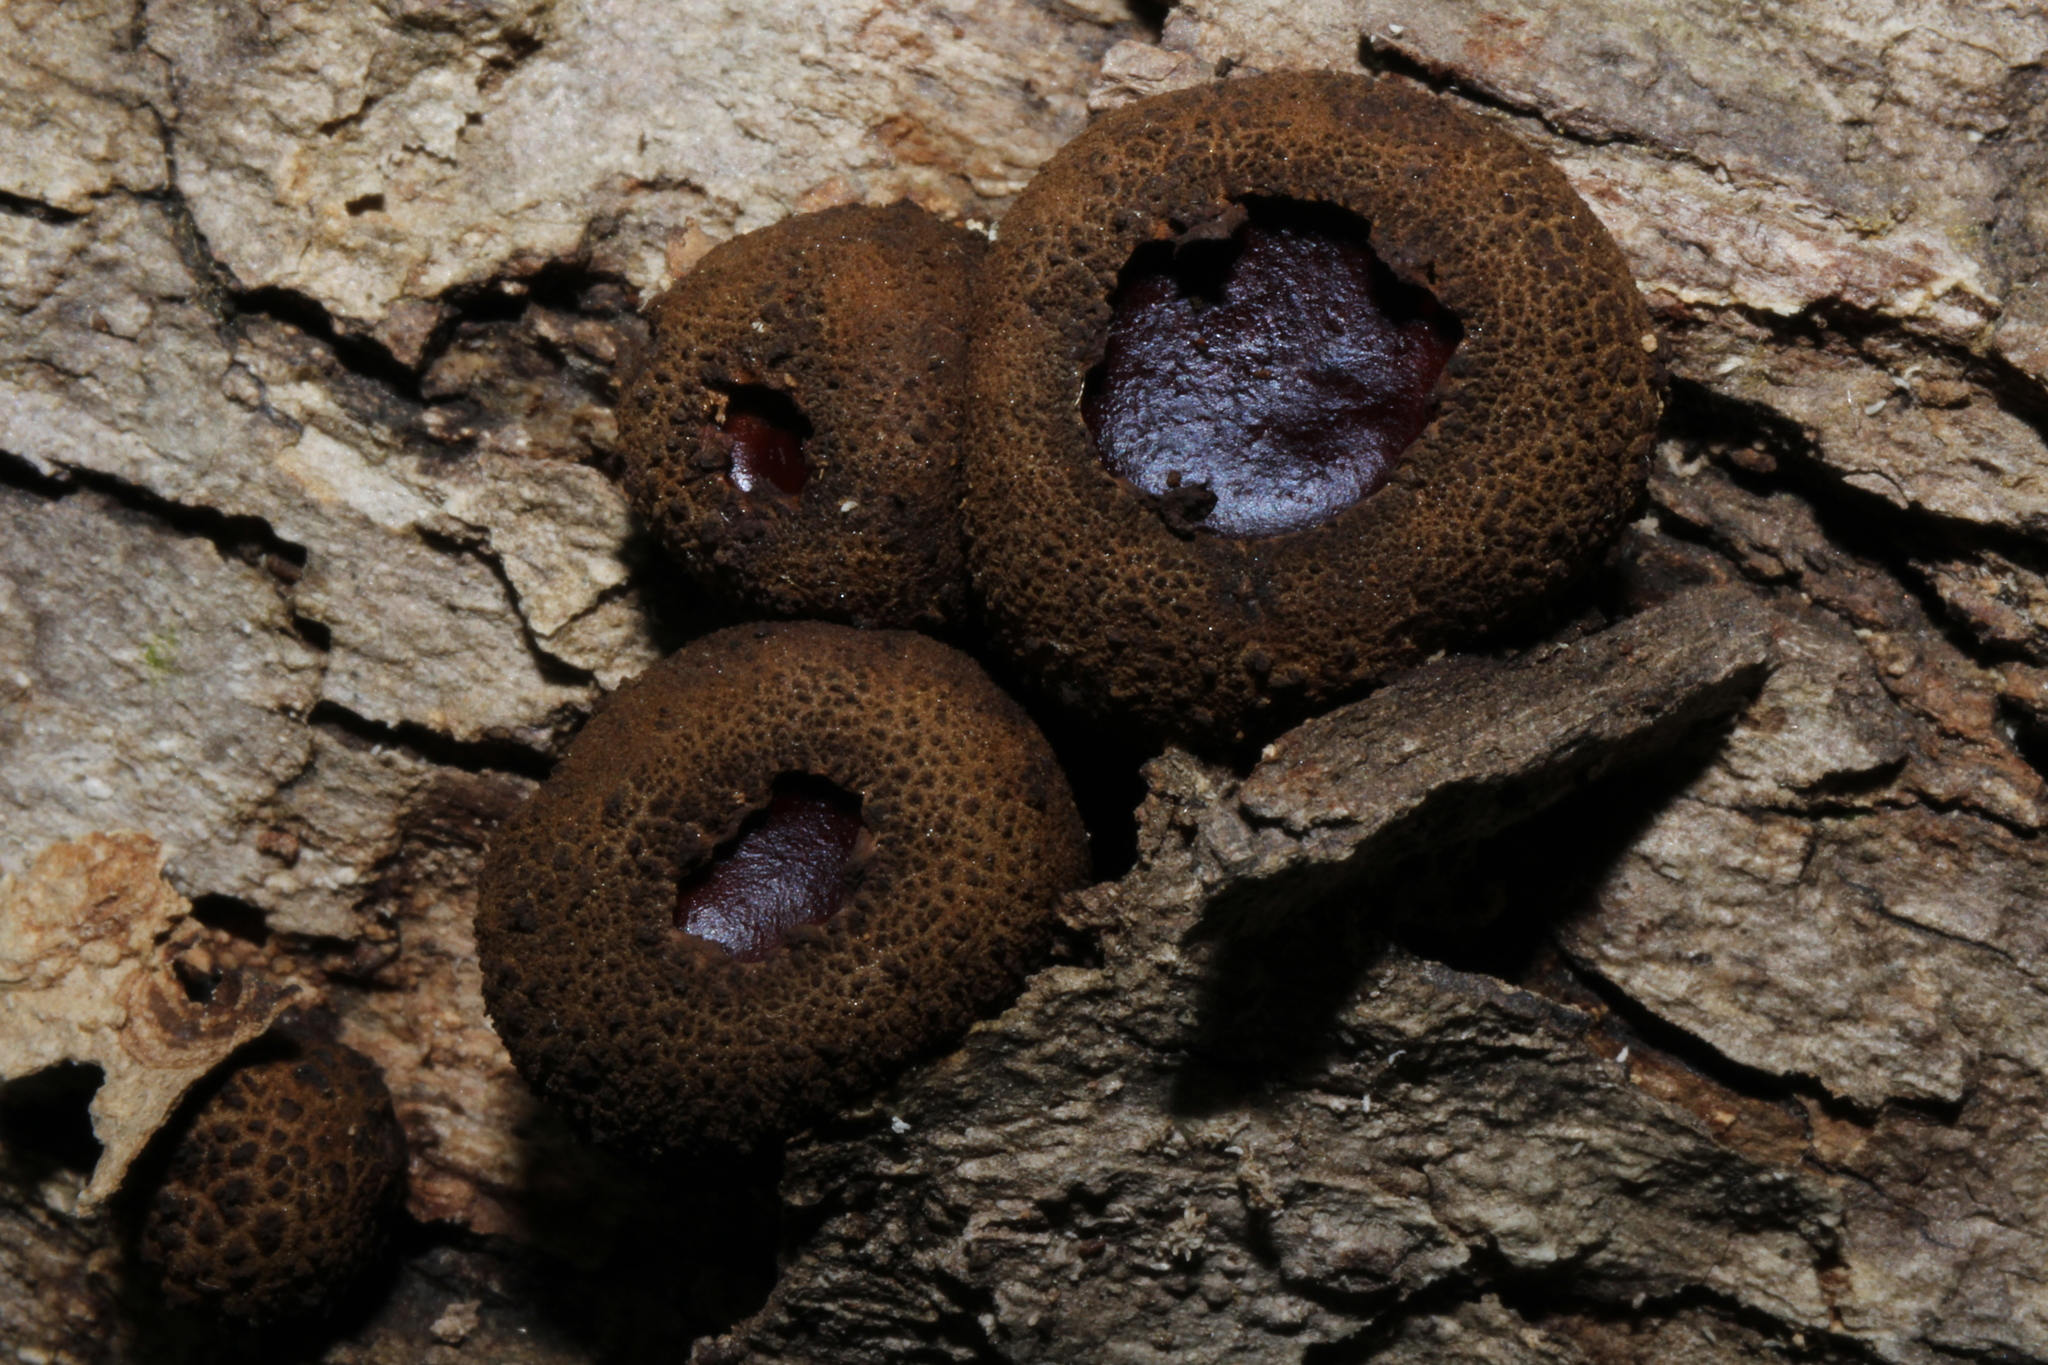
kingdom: Fungi
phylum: Ascomycota
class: Leotiomycetes
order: Phacidiales
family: Phacidiaceae
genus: Bulgaria
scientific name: Bulgaria inquinans
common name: Black bulgar
